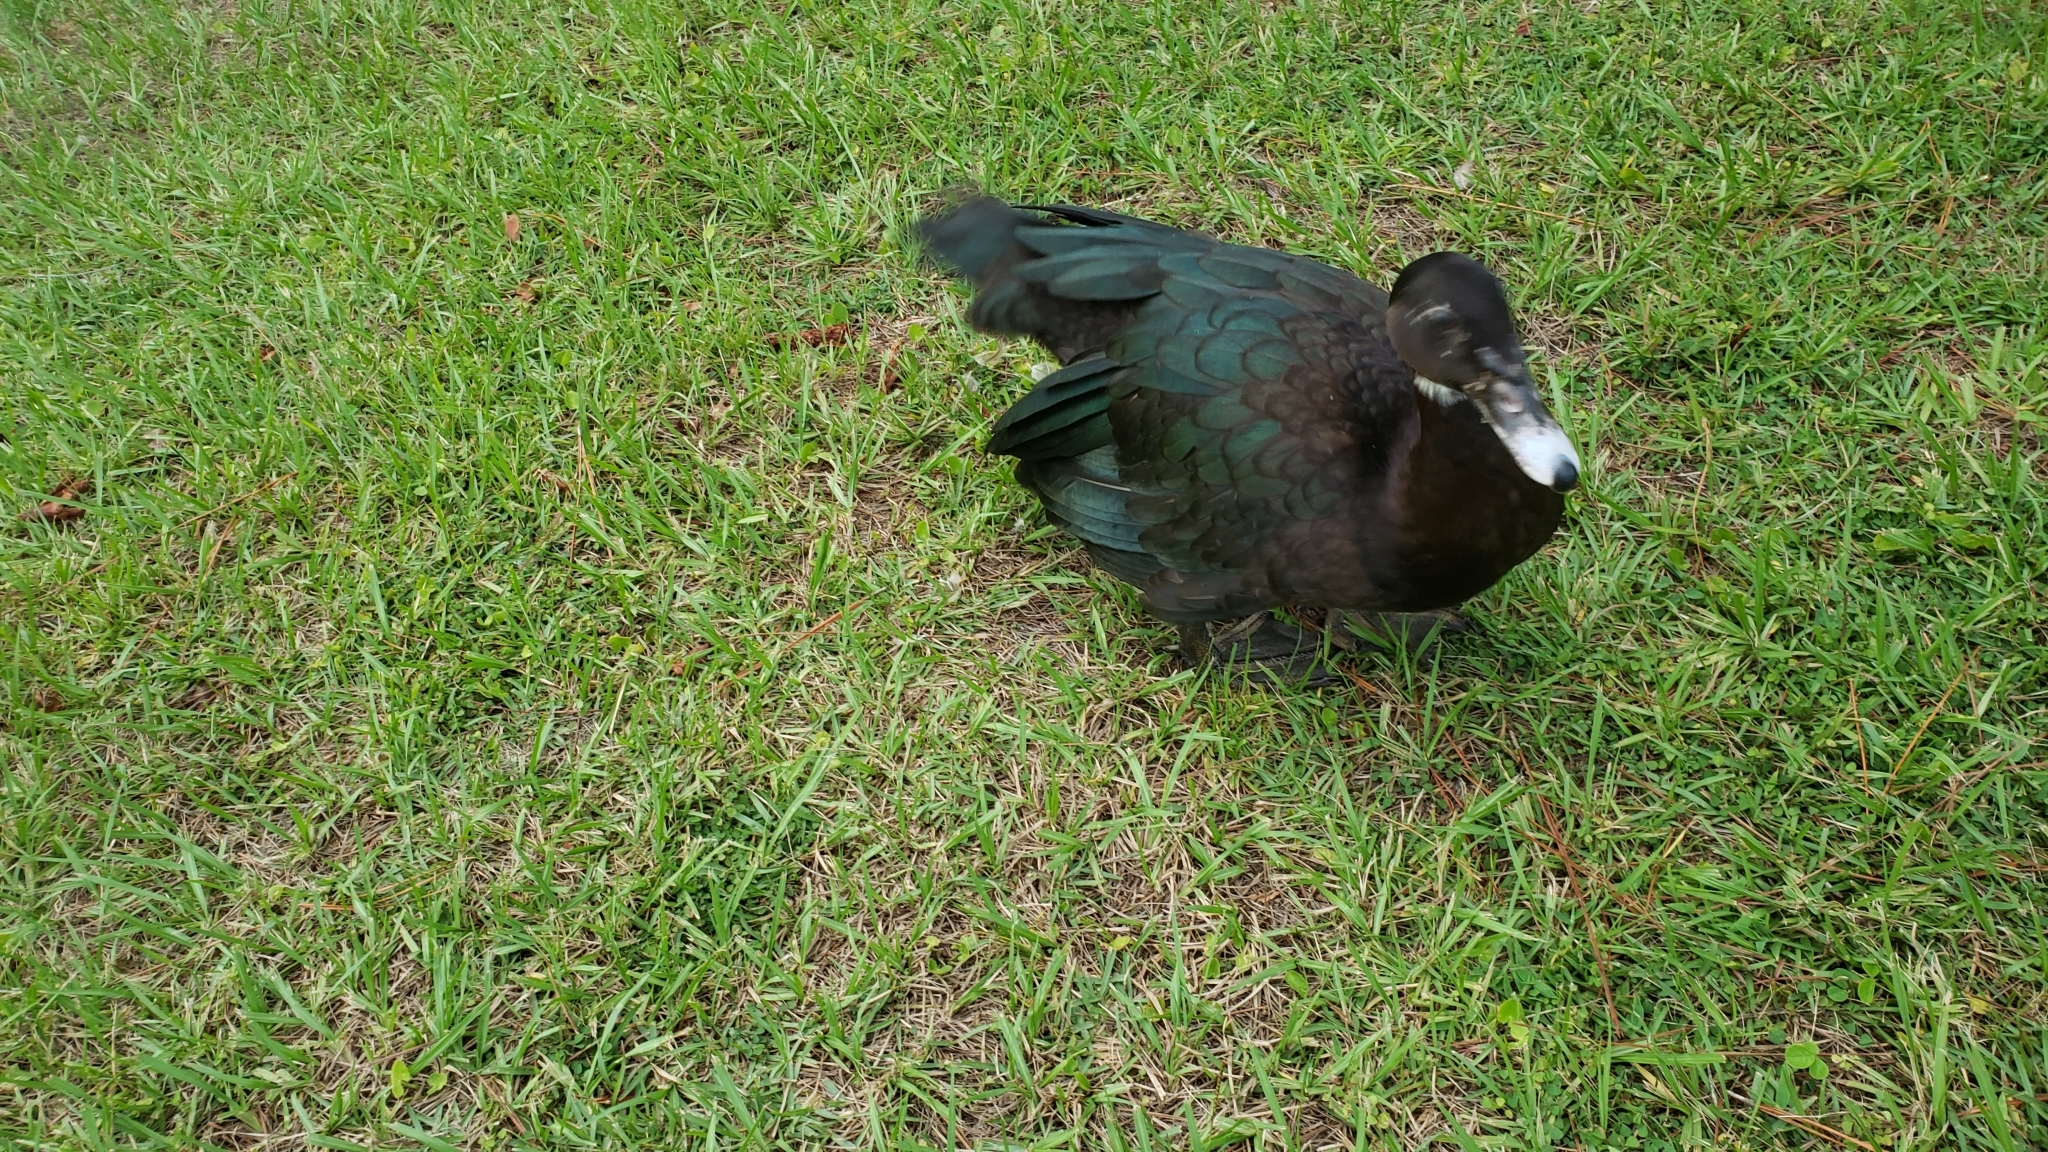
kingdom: Animalia
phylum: Chordata
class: Aves
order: Anseriformes
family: Anatidae
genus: Cairina
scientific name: Cairina moschata
